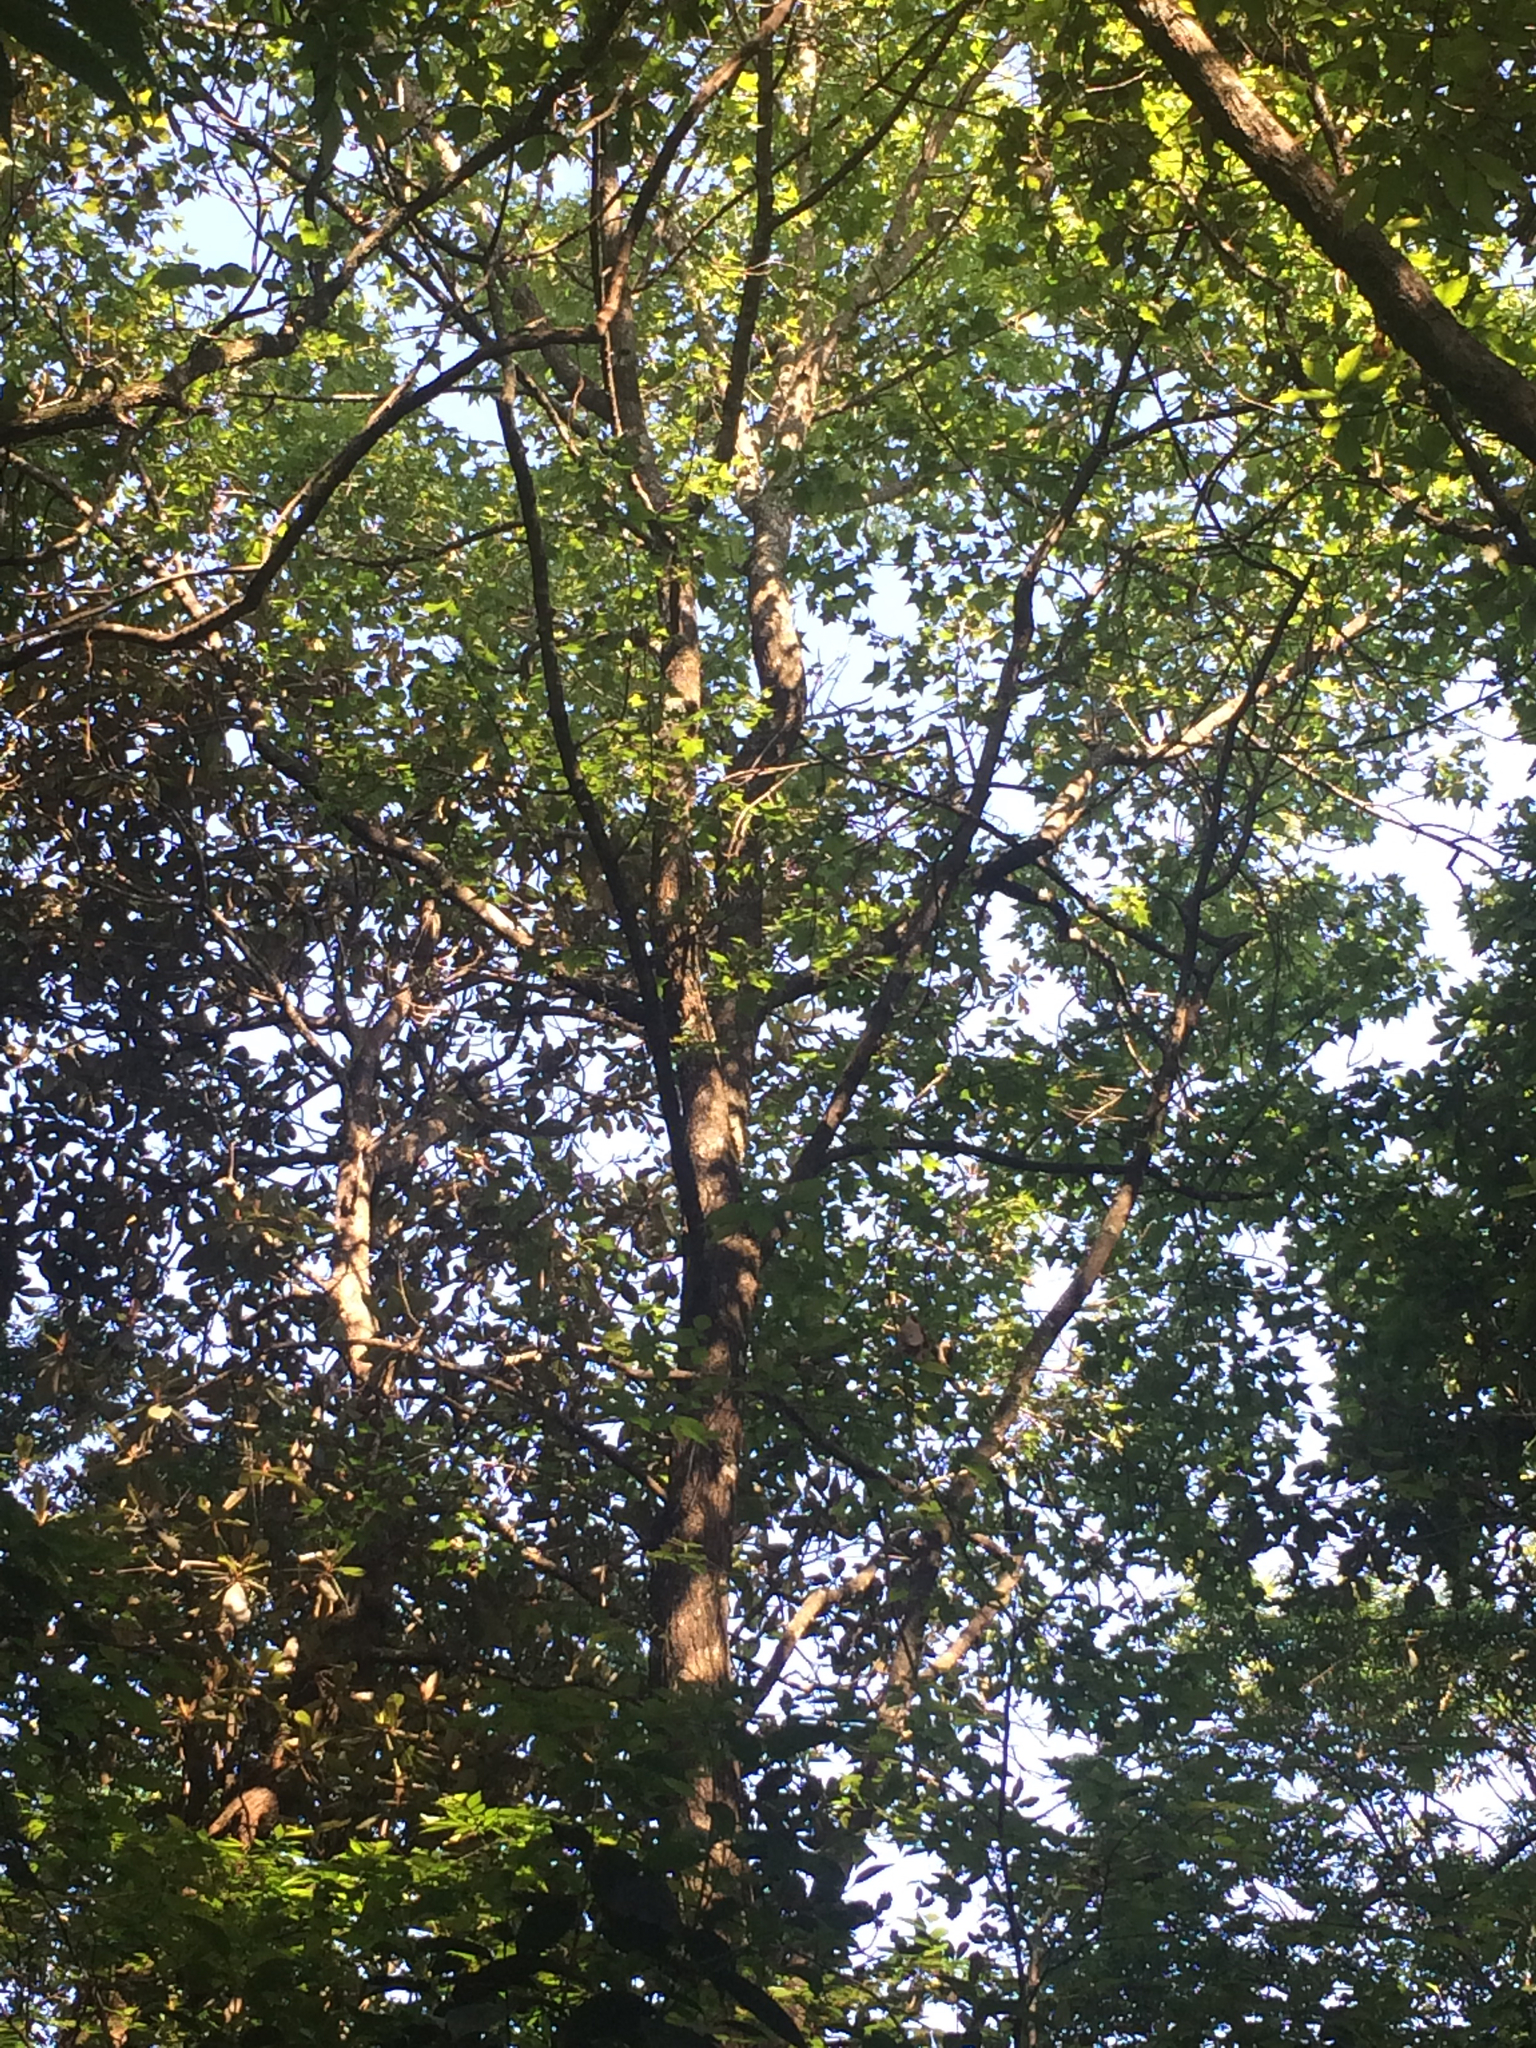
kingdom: Plantae
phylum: Tracheophyta
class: Magnoliopsida
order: Saxifragales
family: Altingiaceae
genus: Liquidambar
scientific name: Liquidambar styraciflua
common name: Sweet gum
